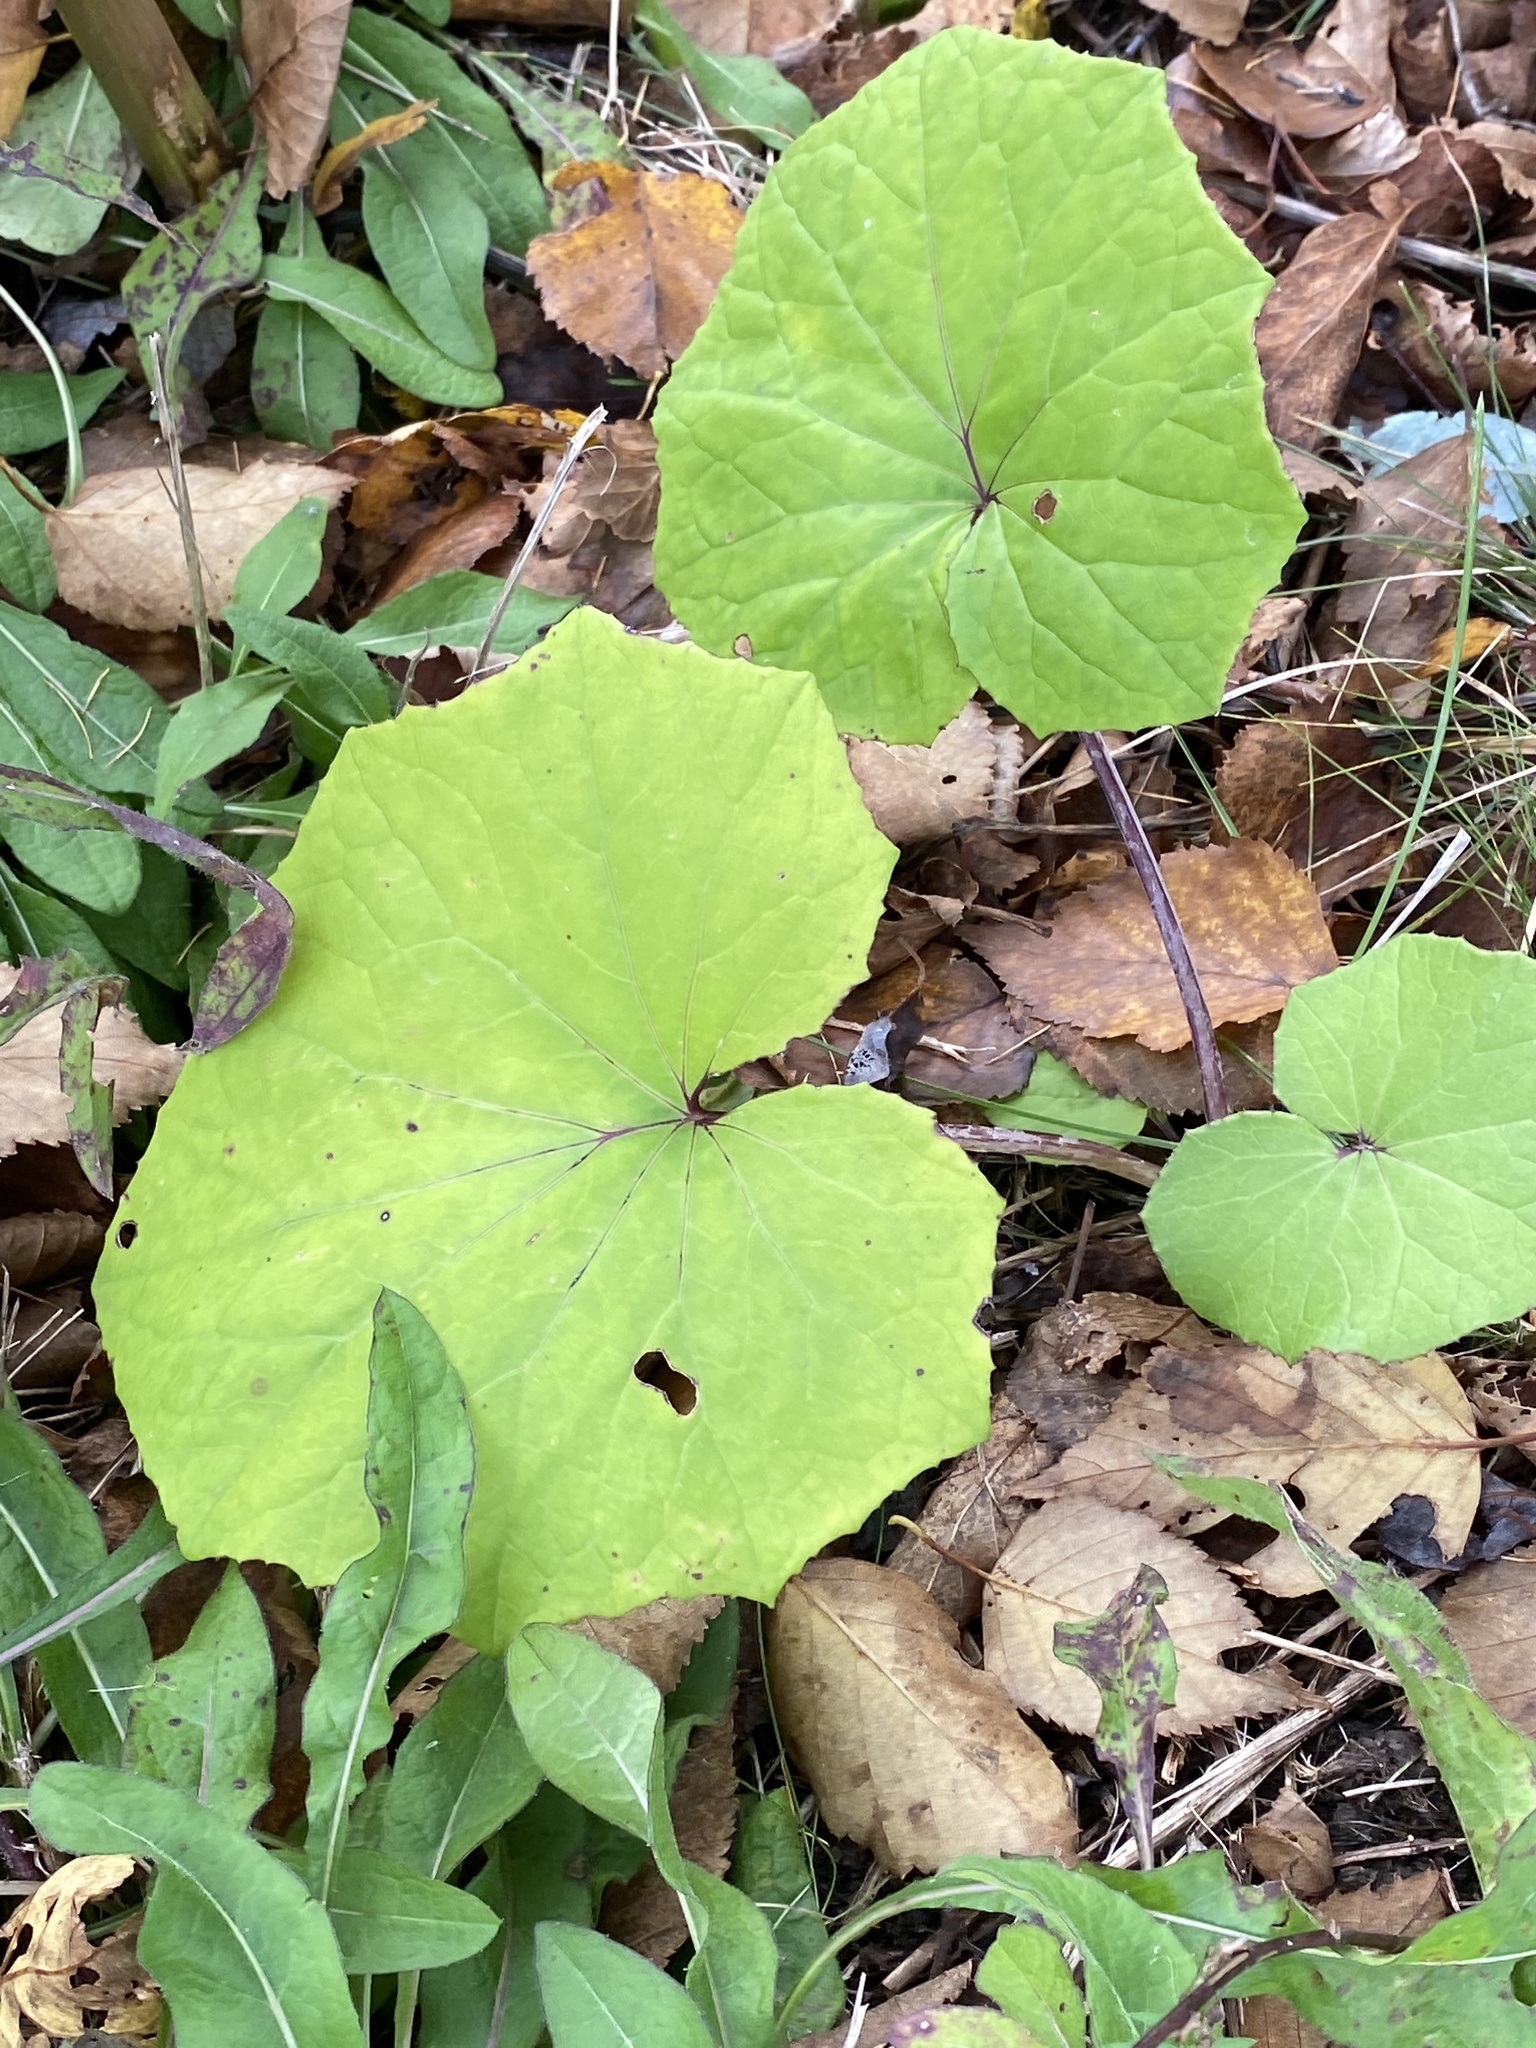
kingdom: Plantae
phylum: Tracheophyta
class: Magnoliopsida
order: Asterales
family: Asteraceae
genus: Tussilago
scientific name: Tussilago farfara
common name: Coltsfoot
